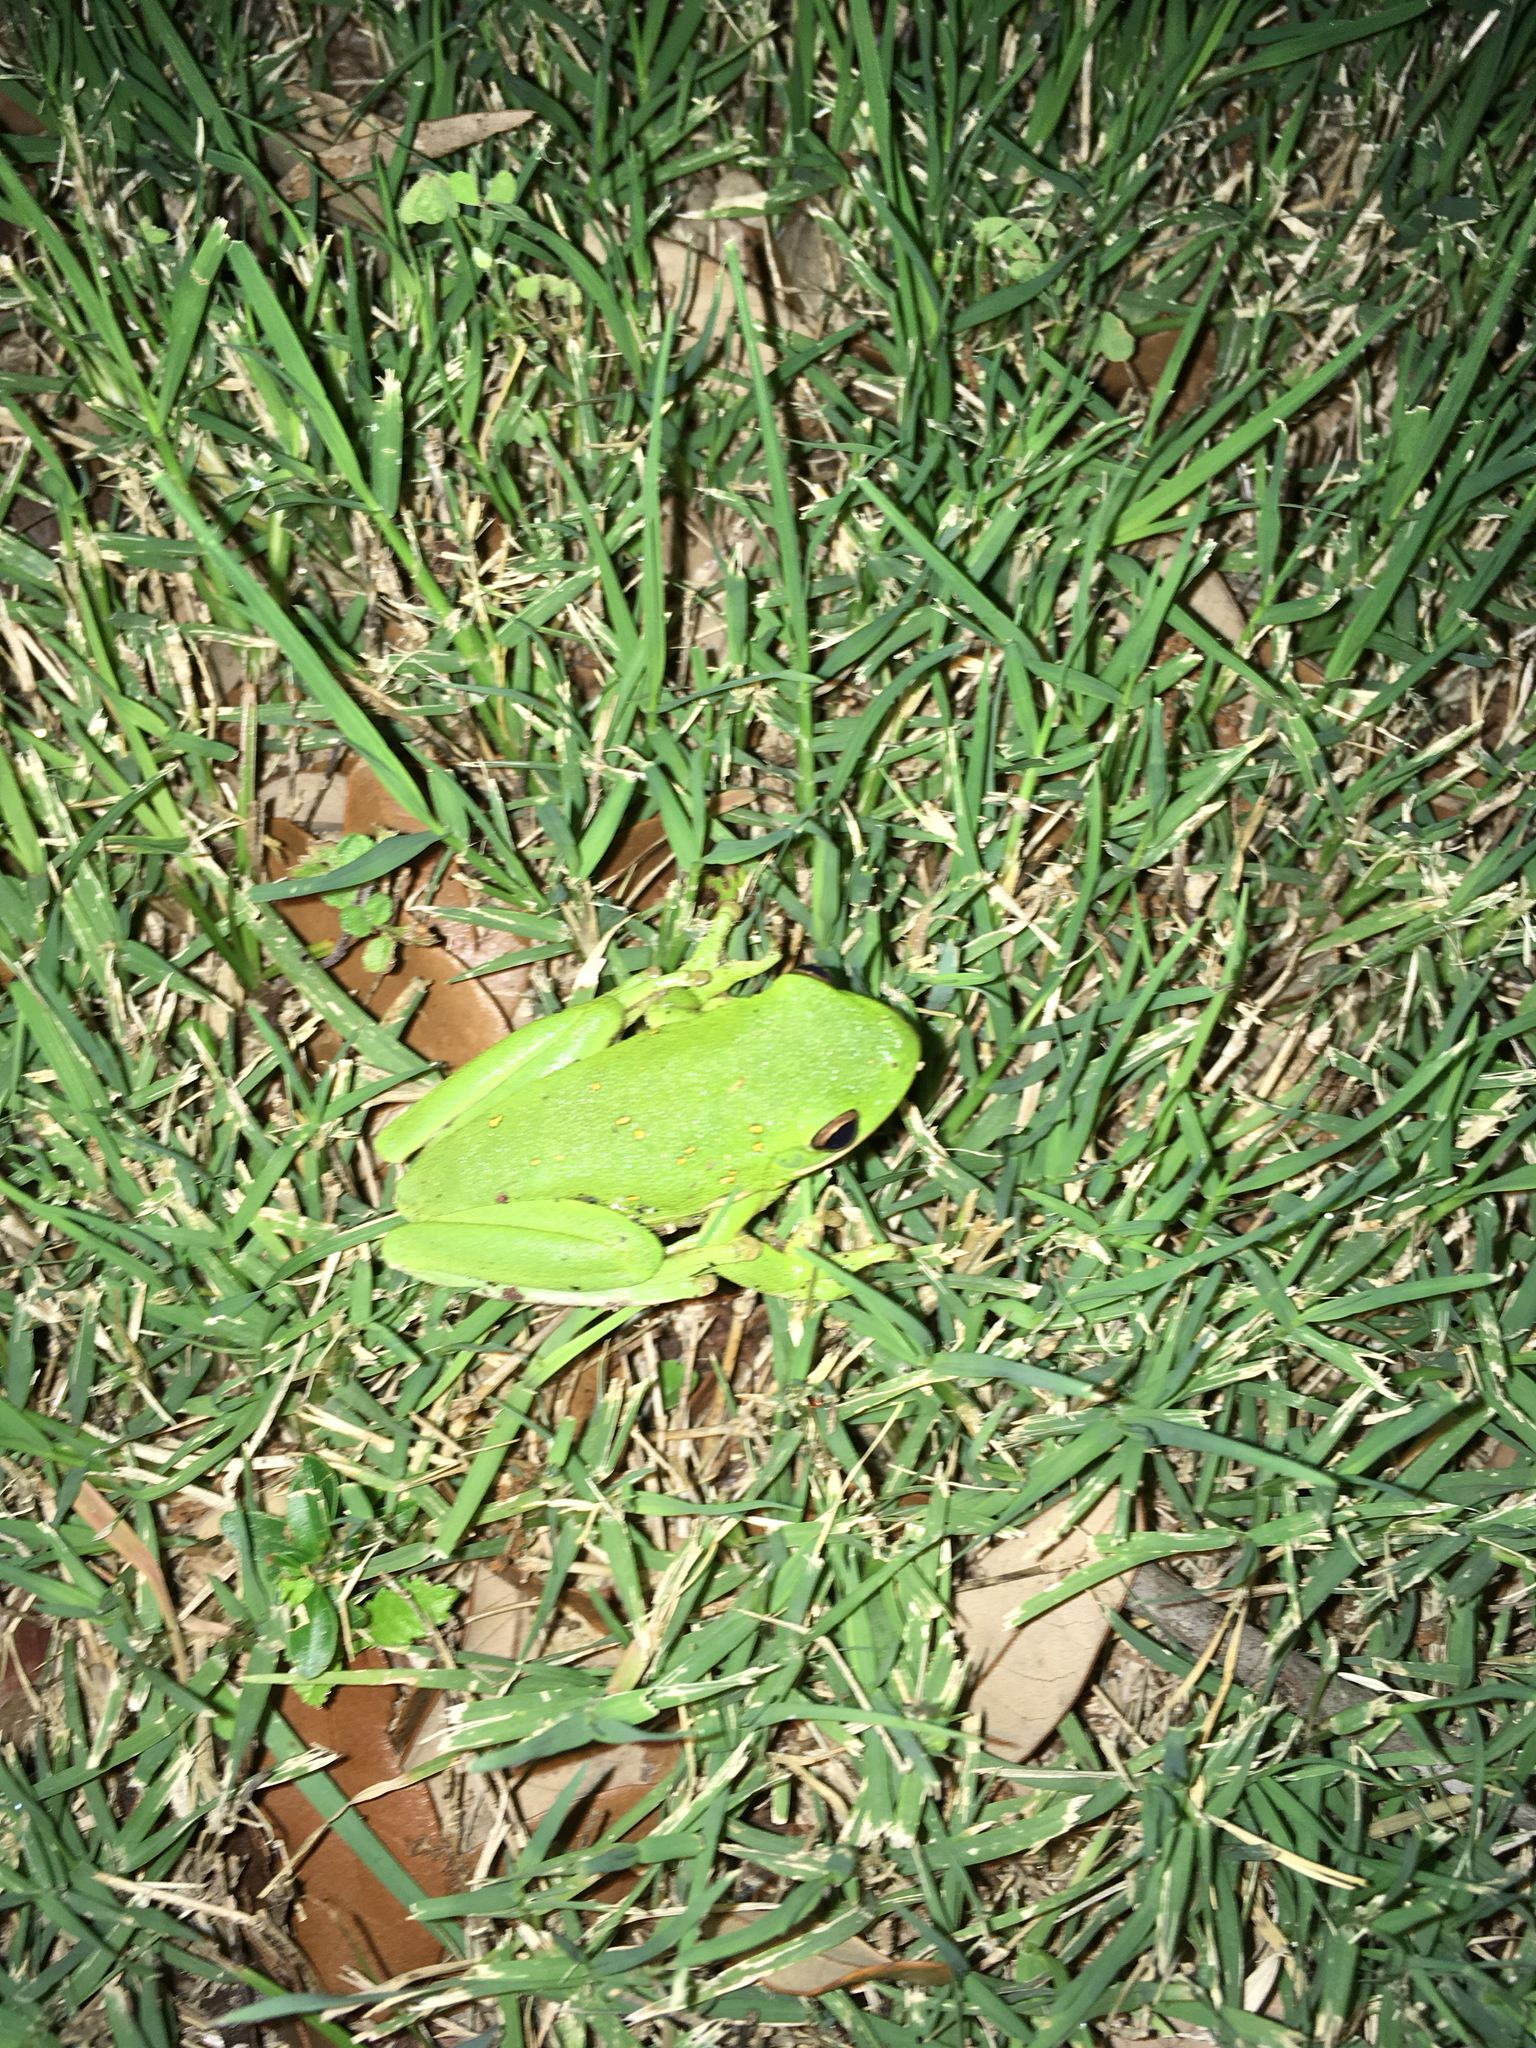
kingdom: Animalia
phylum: Chordata
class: Amphibia
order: Anura
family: Hylidae
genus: Dryophytes
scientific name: Dryophytes cinereus
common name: Green treefrog
